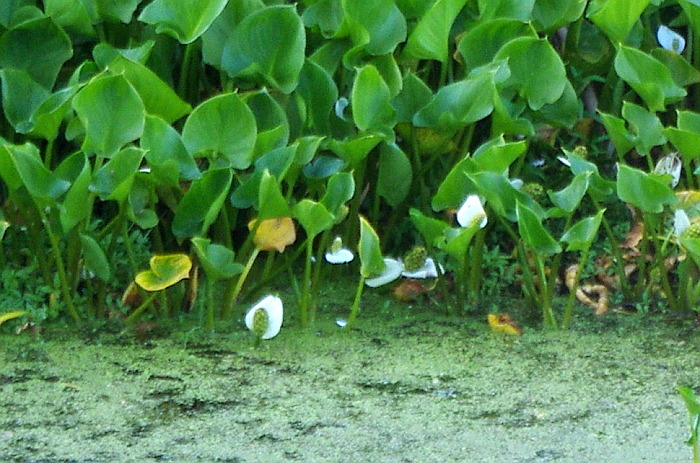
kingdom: Plantae
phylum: Tracheophyta
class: Liliopsida
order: Alismatales
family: Araceae
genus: Calla
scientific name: Calla palustris
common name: Bog arum
